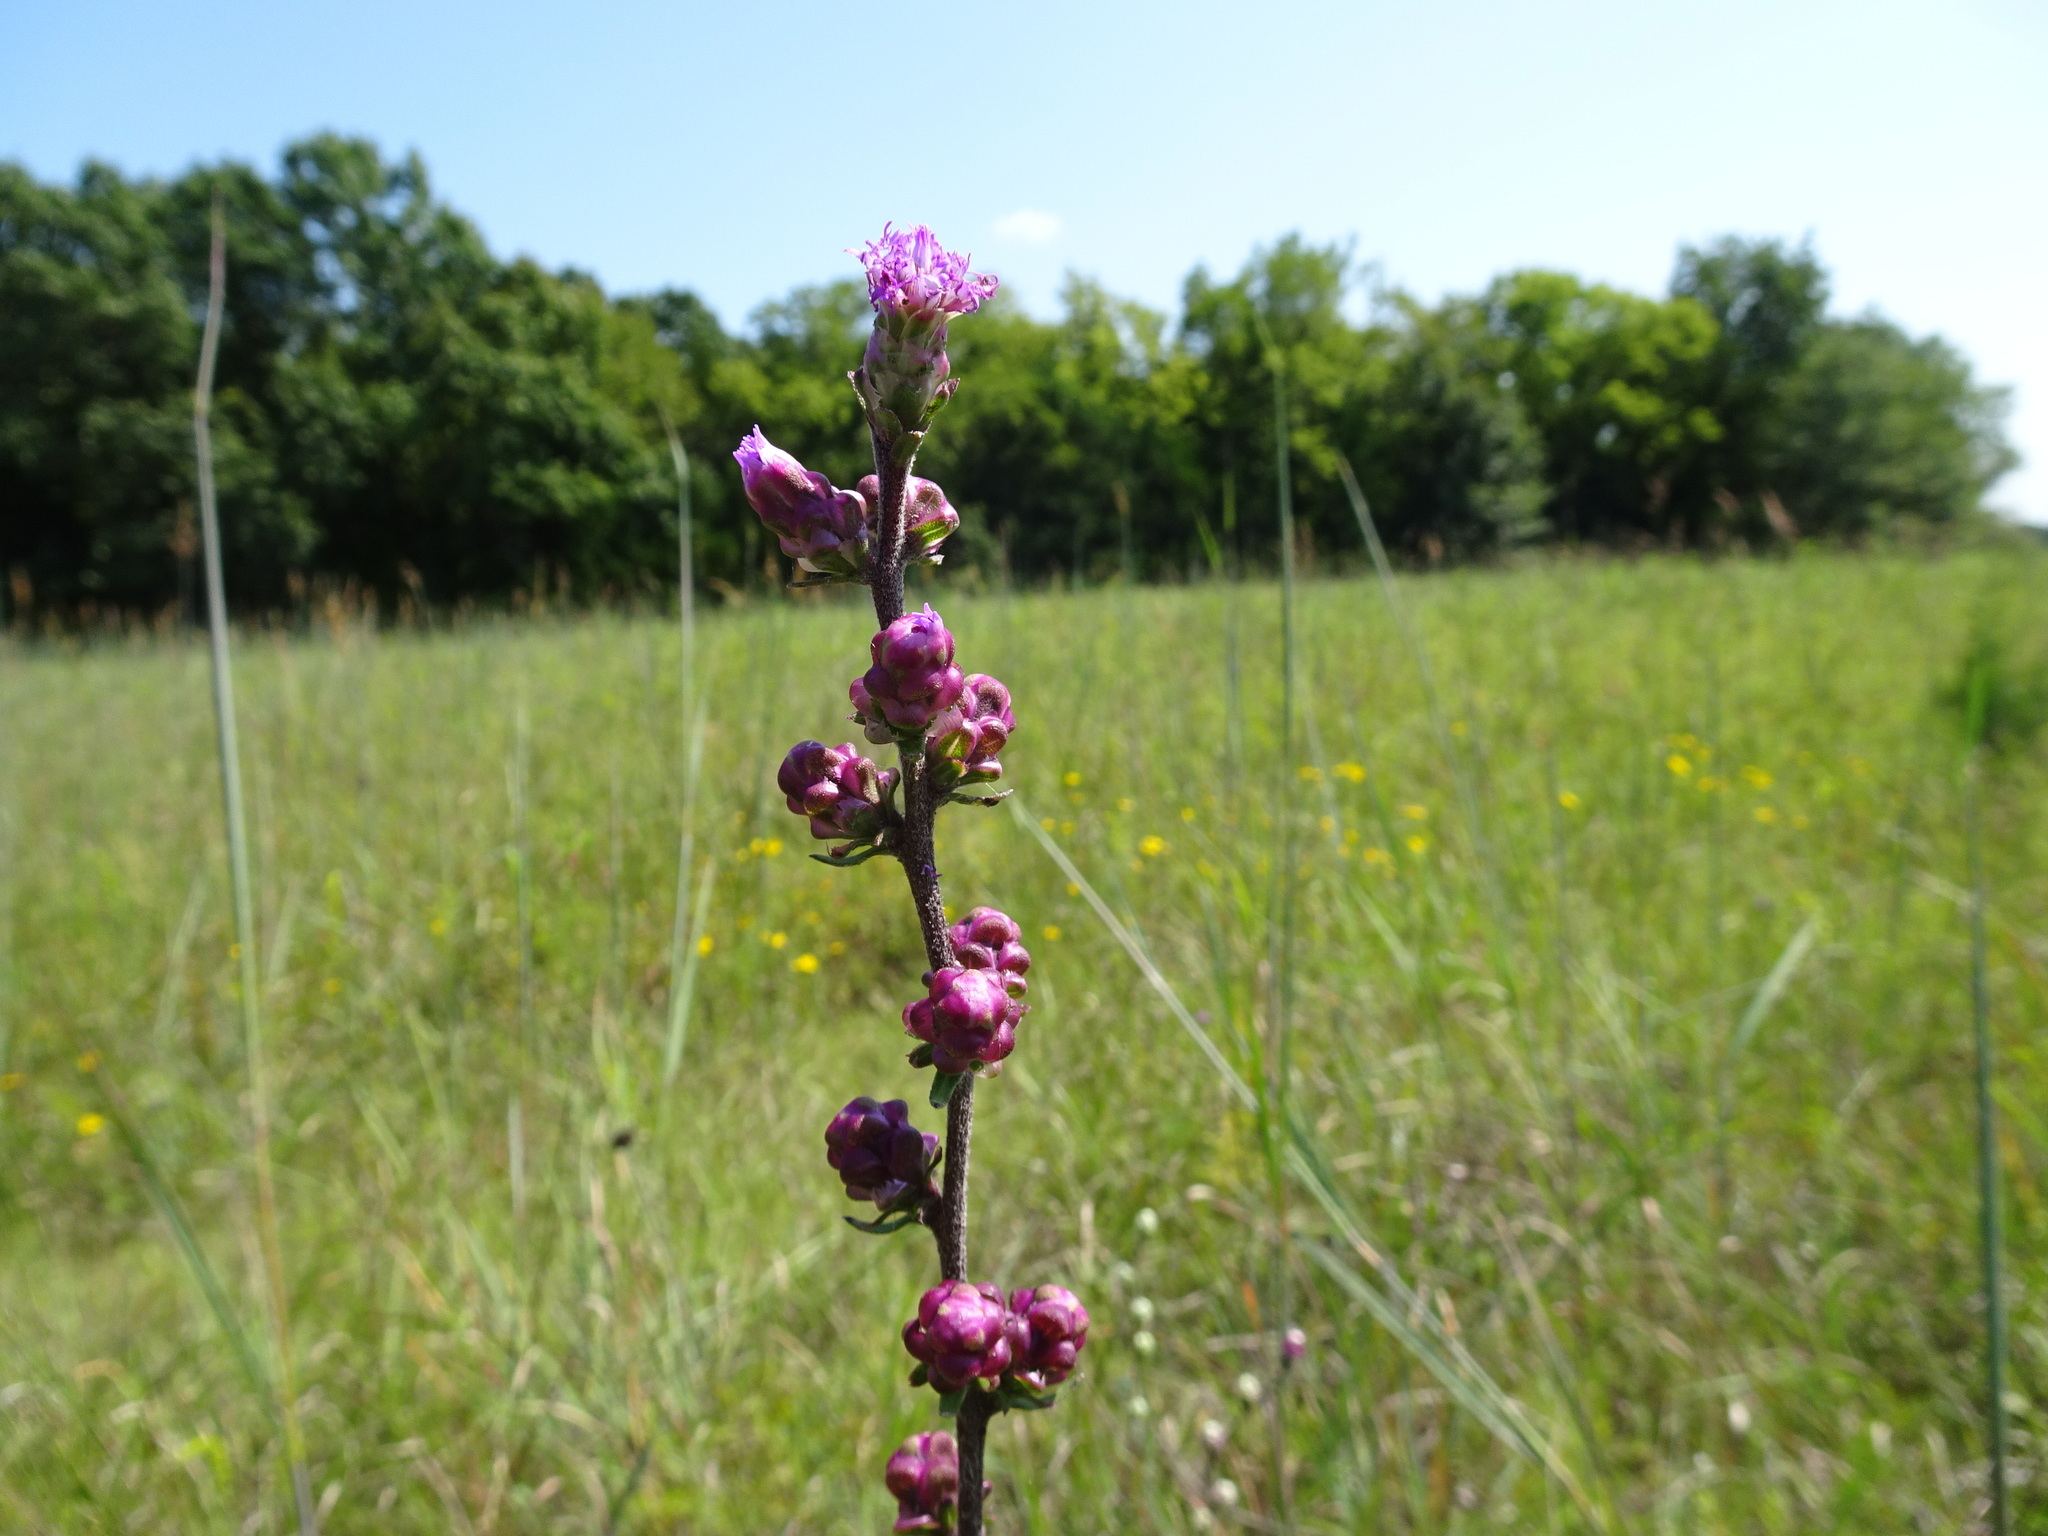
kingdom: Plantae
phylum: Tracheophyta
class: Magnoliopsida
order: Asterales
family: Asteraceae
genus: Liatris
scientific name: Liatris aspera
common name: Lacerate blazing-star
